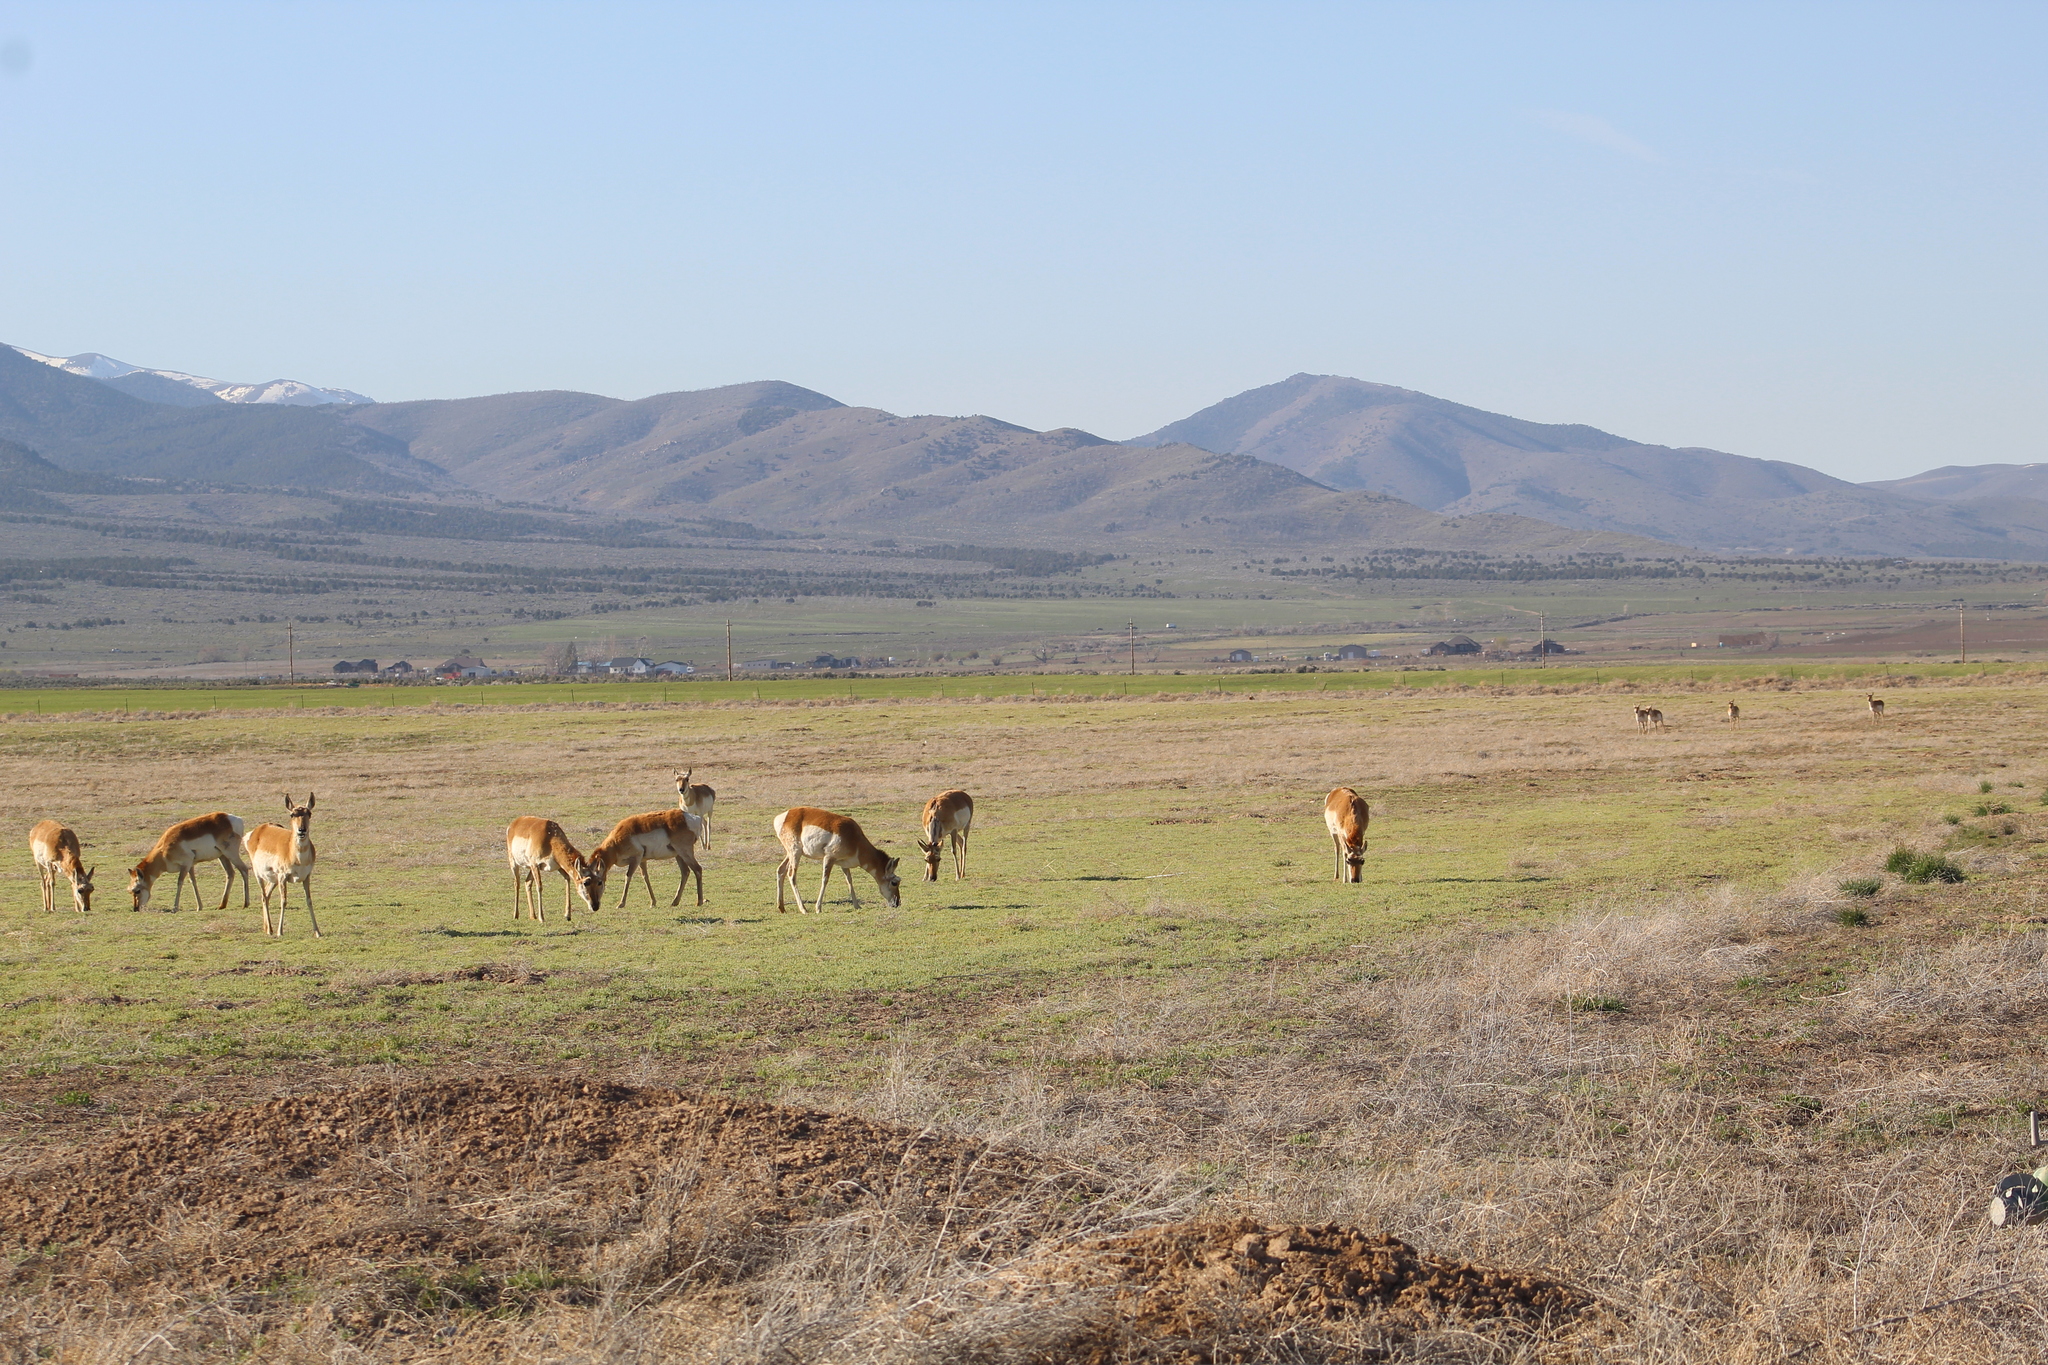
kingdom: Animalia
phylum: Chordata
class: Mammalia
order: Artiodactyla
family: Antilocapridae
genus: Antilocapra
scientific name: Antilocapra americana
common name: Pronghorn
